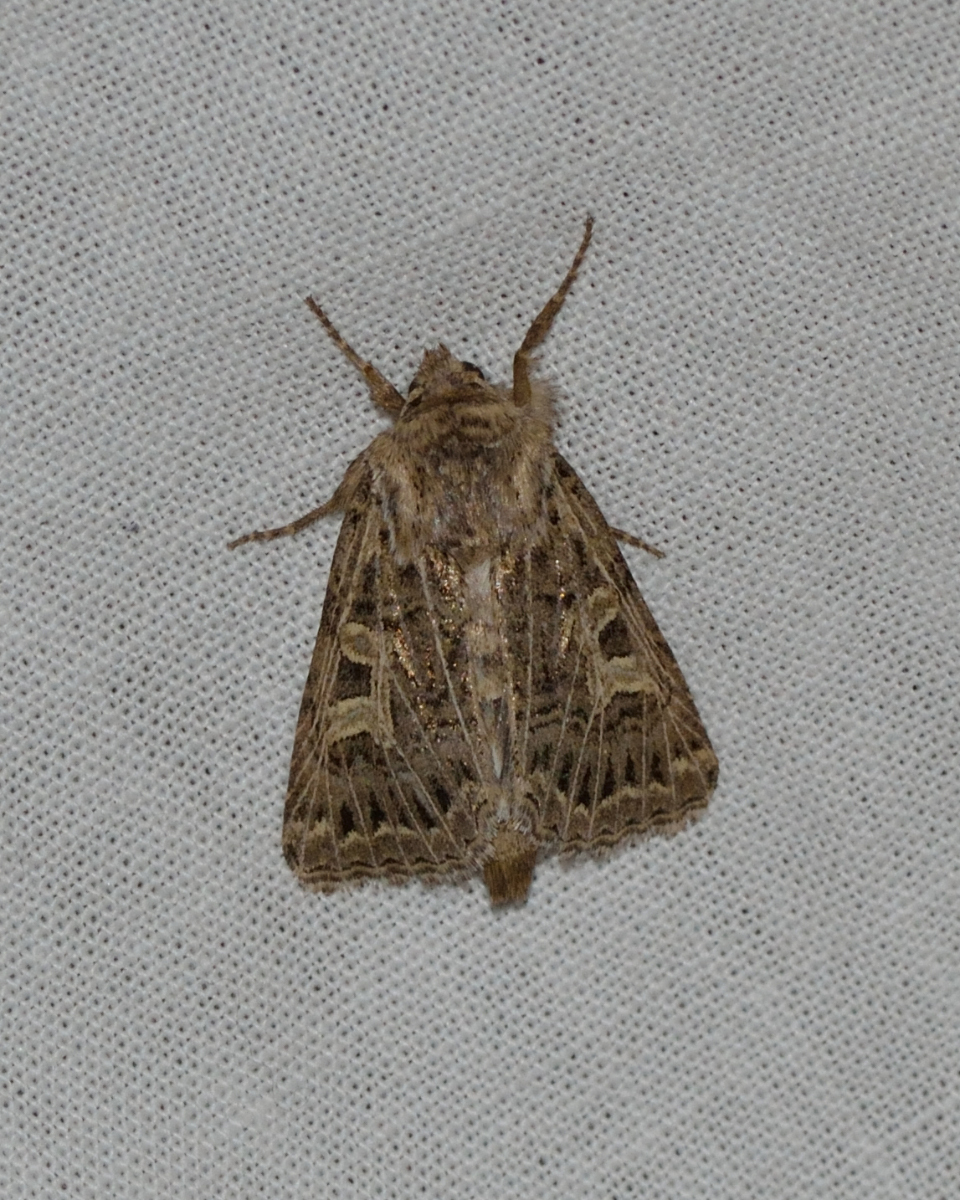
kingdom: Animalia
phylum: Arthropoda
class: Insecta
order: Lepidoptera
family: Noctuidae
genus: Tholera
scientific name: Tholera decimalis
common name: Feathered gothic
